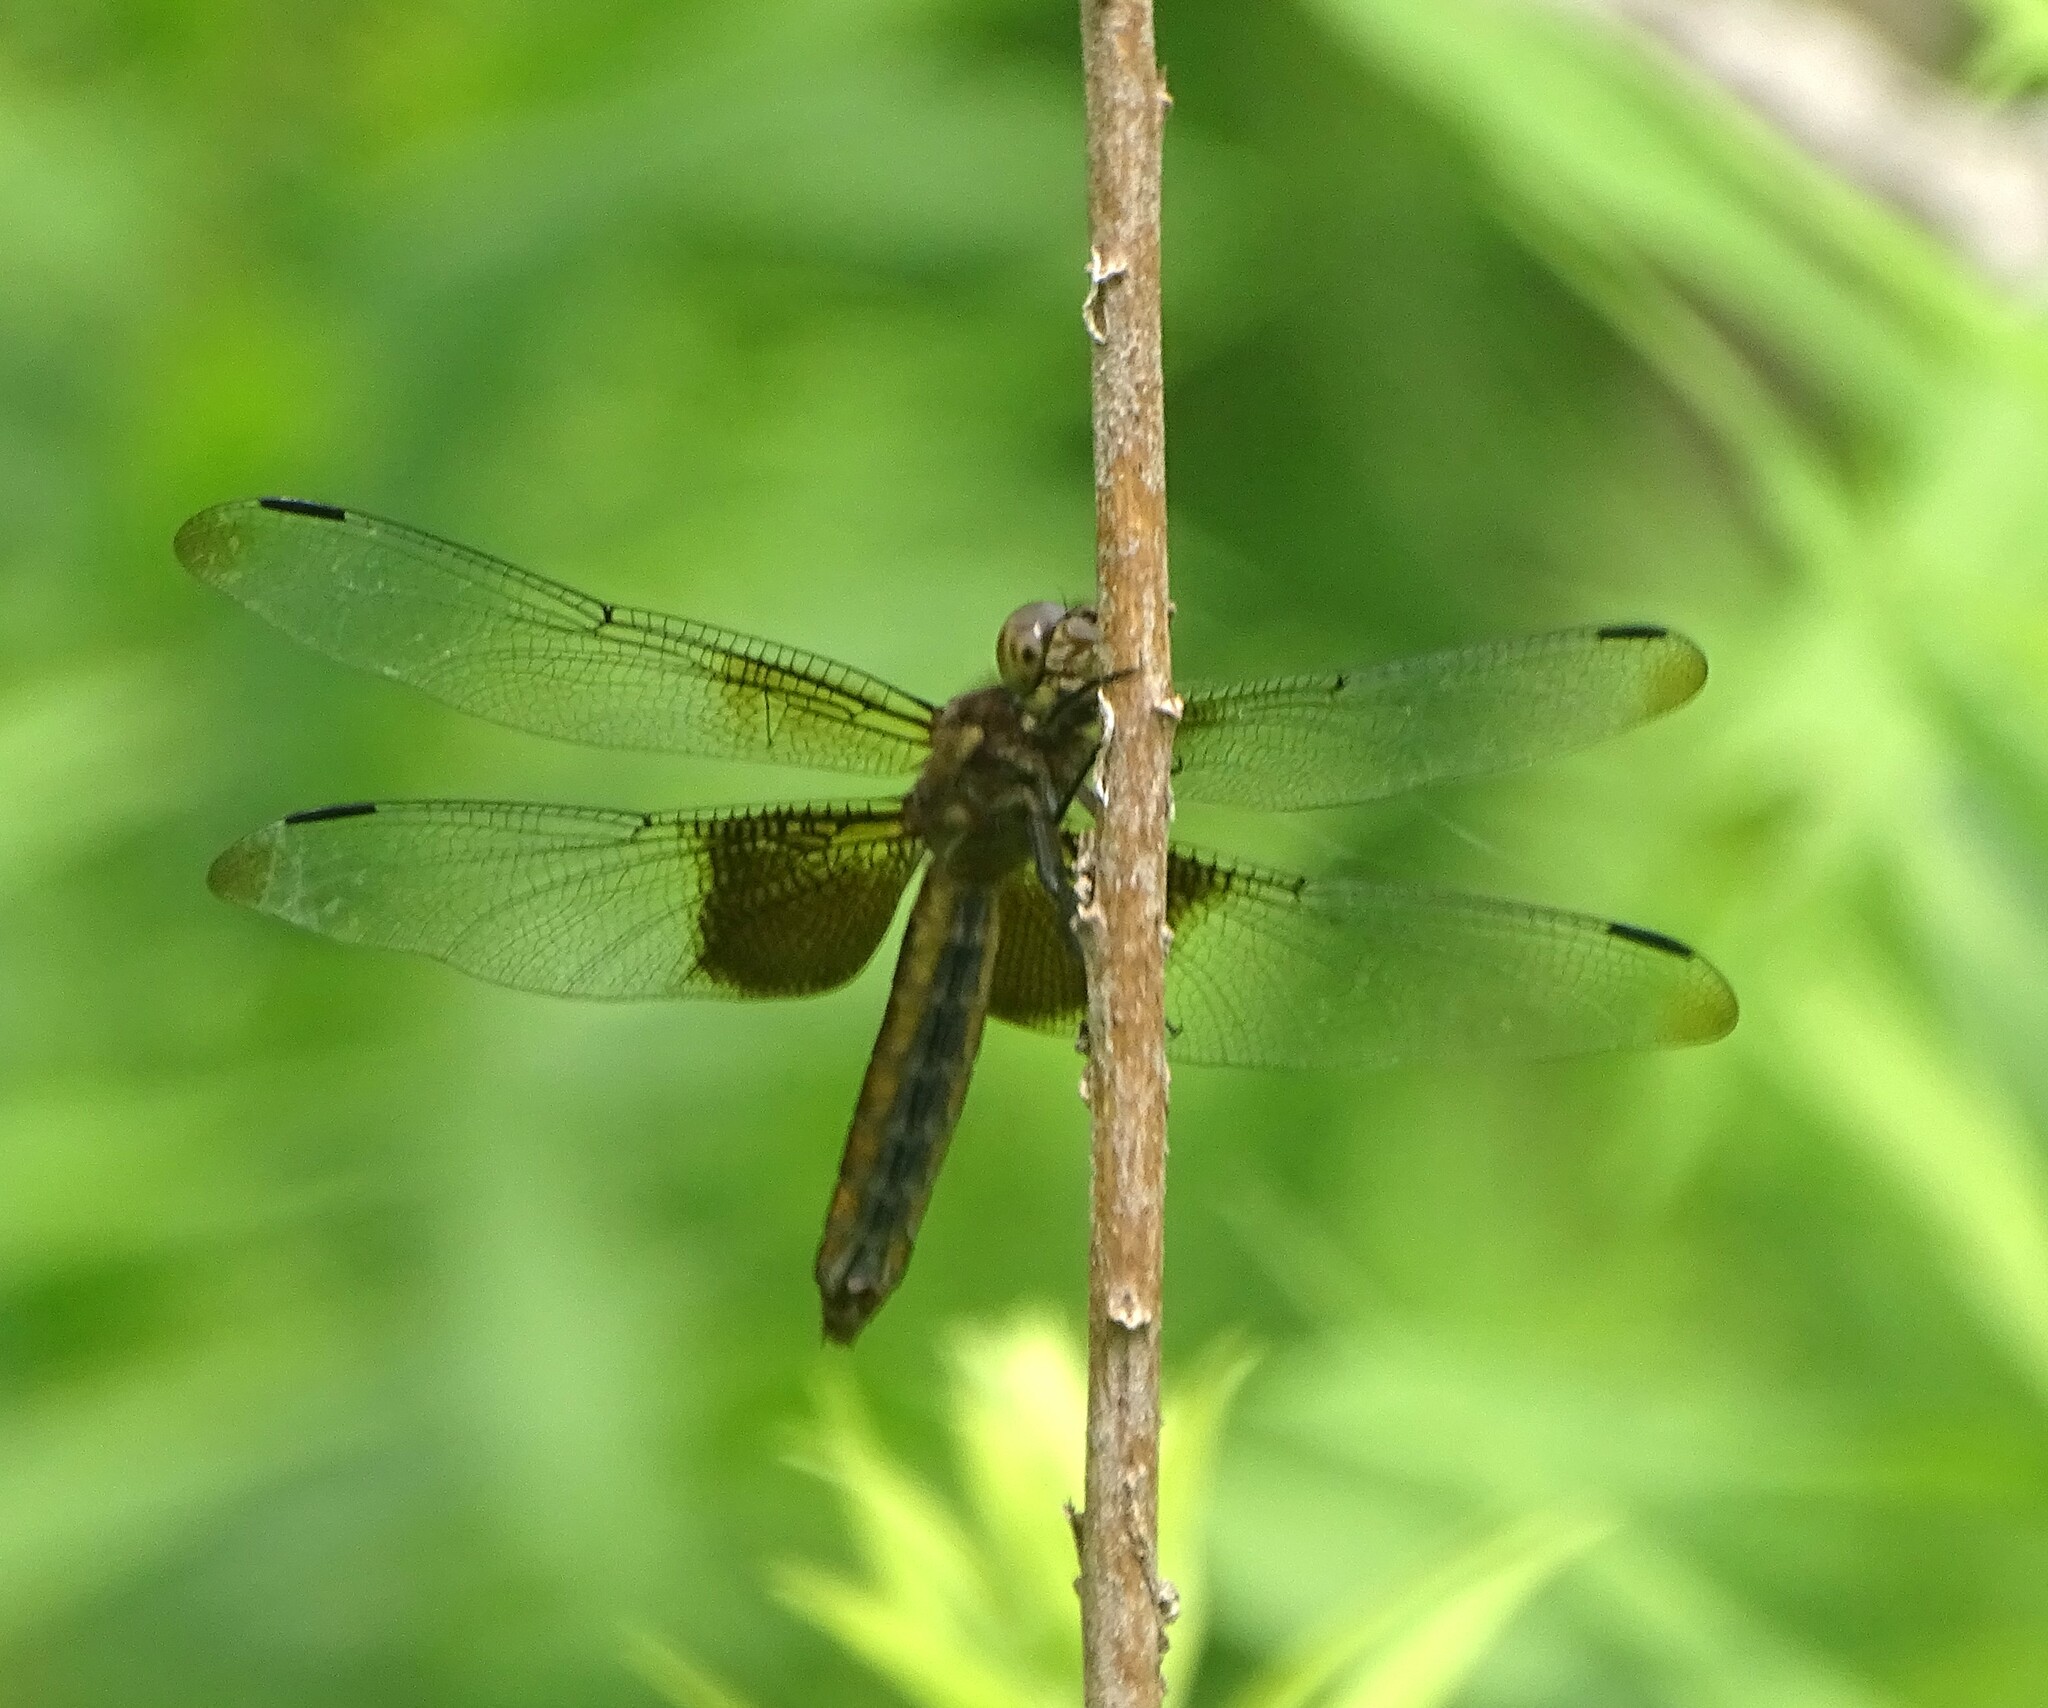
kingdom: Animalia
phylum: Arthropoda
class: Insecta
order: Odonata
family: Libellulidae
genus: Libellula
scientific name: Libellula luctuosa
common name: Widow skimmer
